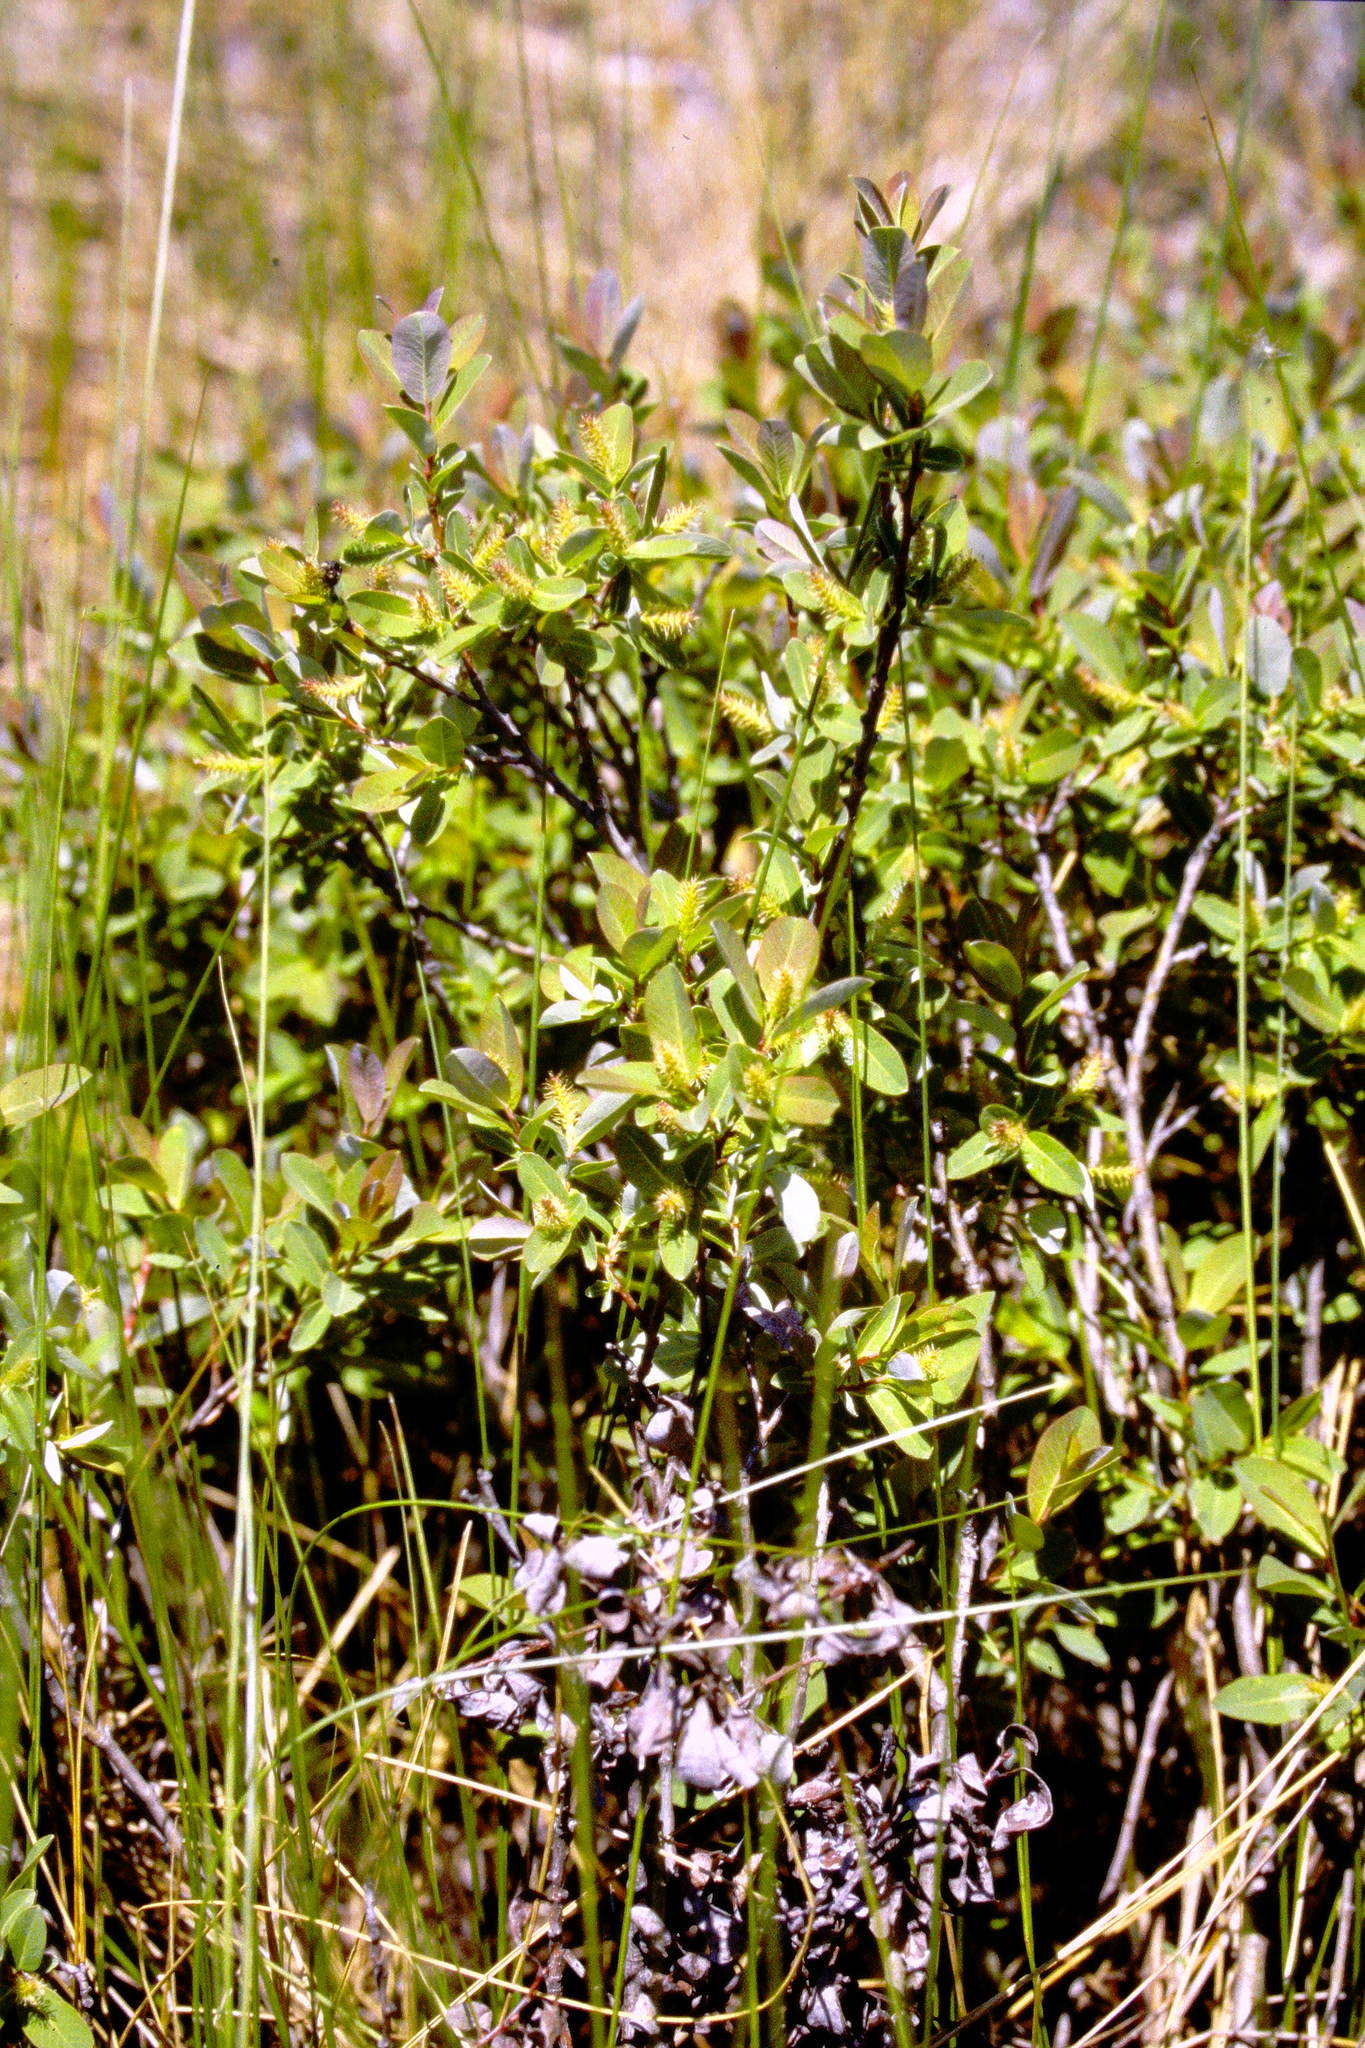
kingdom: Plantae
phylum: Tracheophyta
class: Magnoliopsida
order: Malpighiales
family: Salicaceae
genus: Salix
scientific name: Salix pedicellaris
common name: Bog willow
